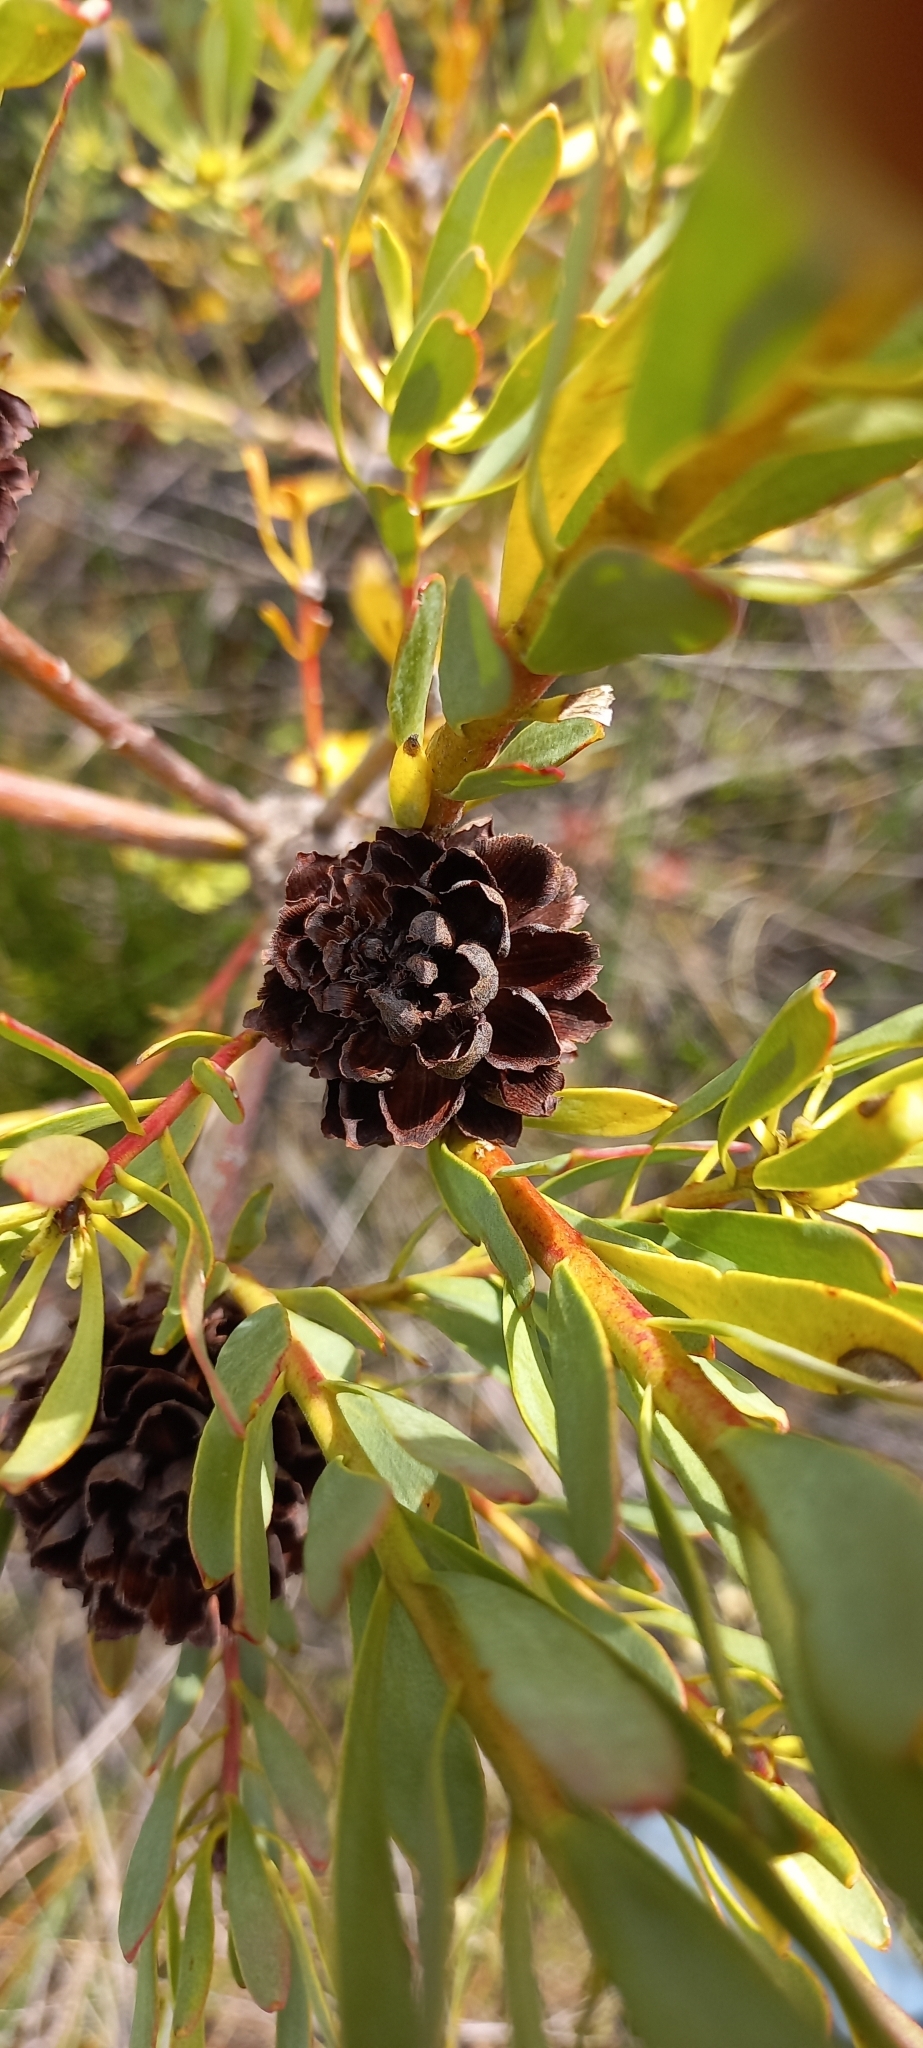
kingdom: Plantae
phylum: Tracheophyta
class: Magnoliopsida
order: Proteales
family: Proteaceae
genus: Leucadendron
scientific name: Leucadendron chamelaea
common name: Witsenberg conebush
